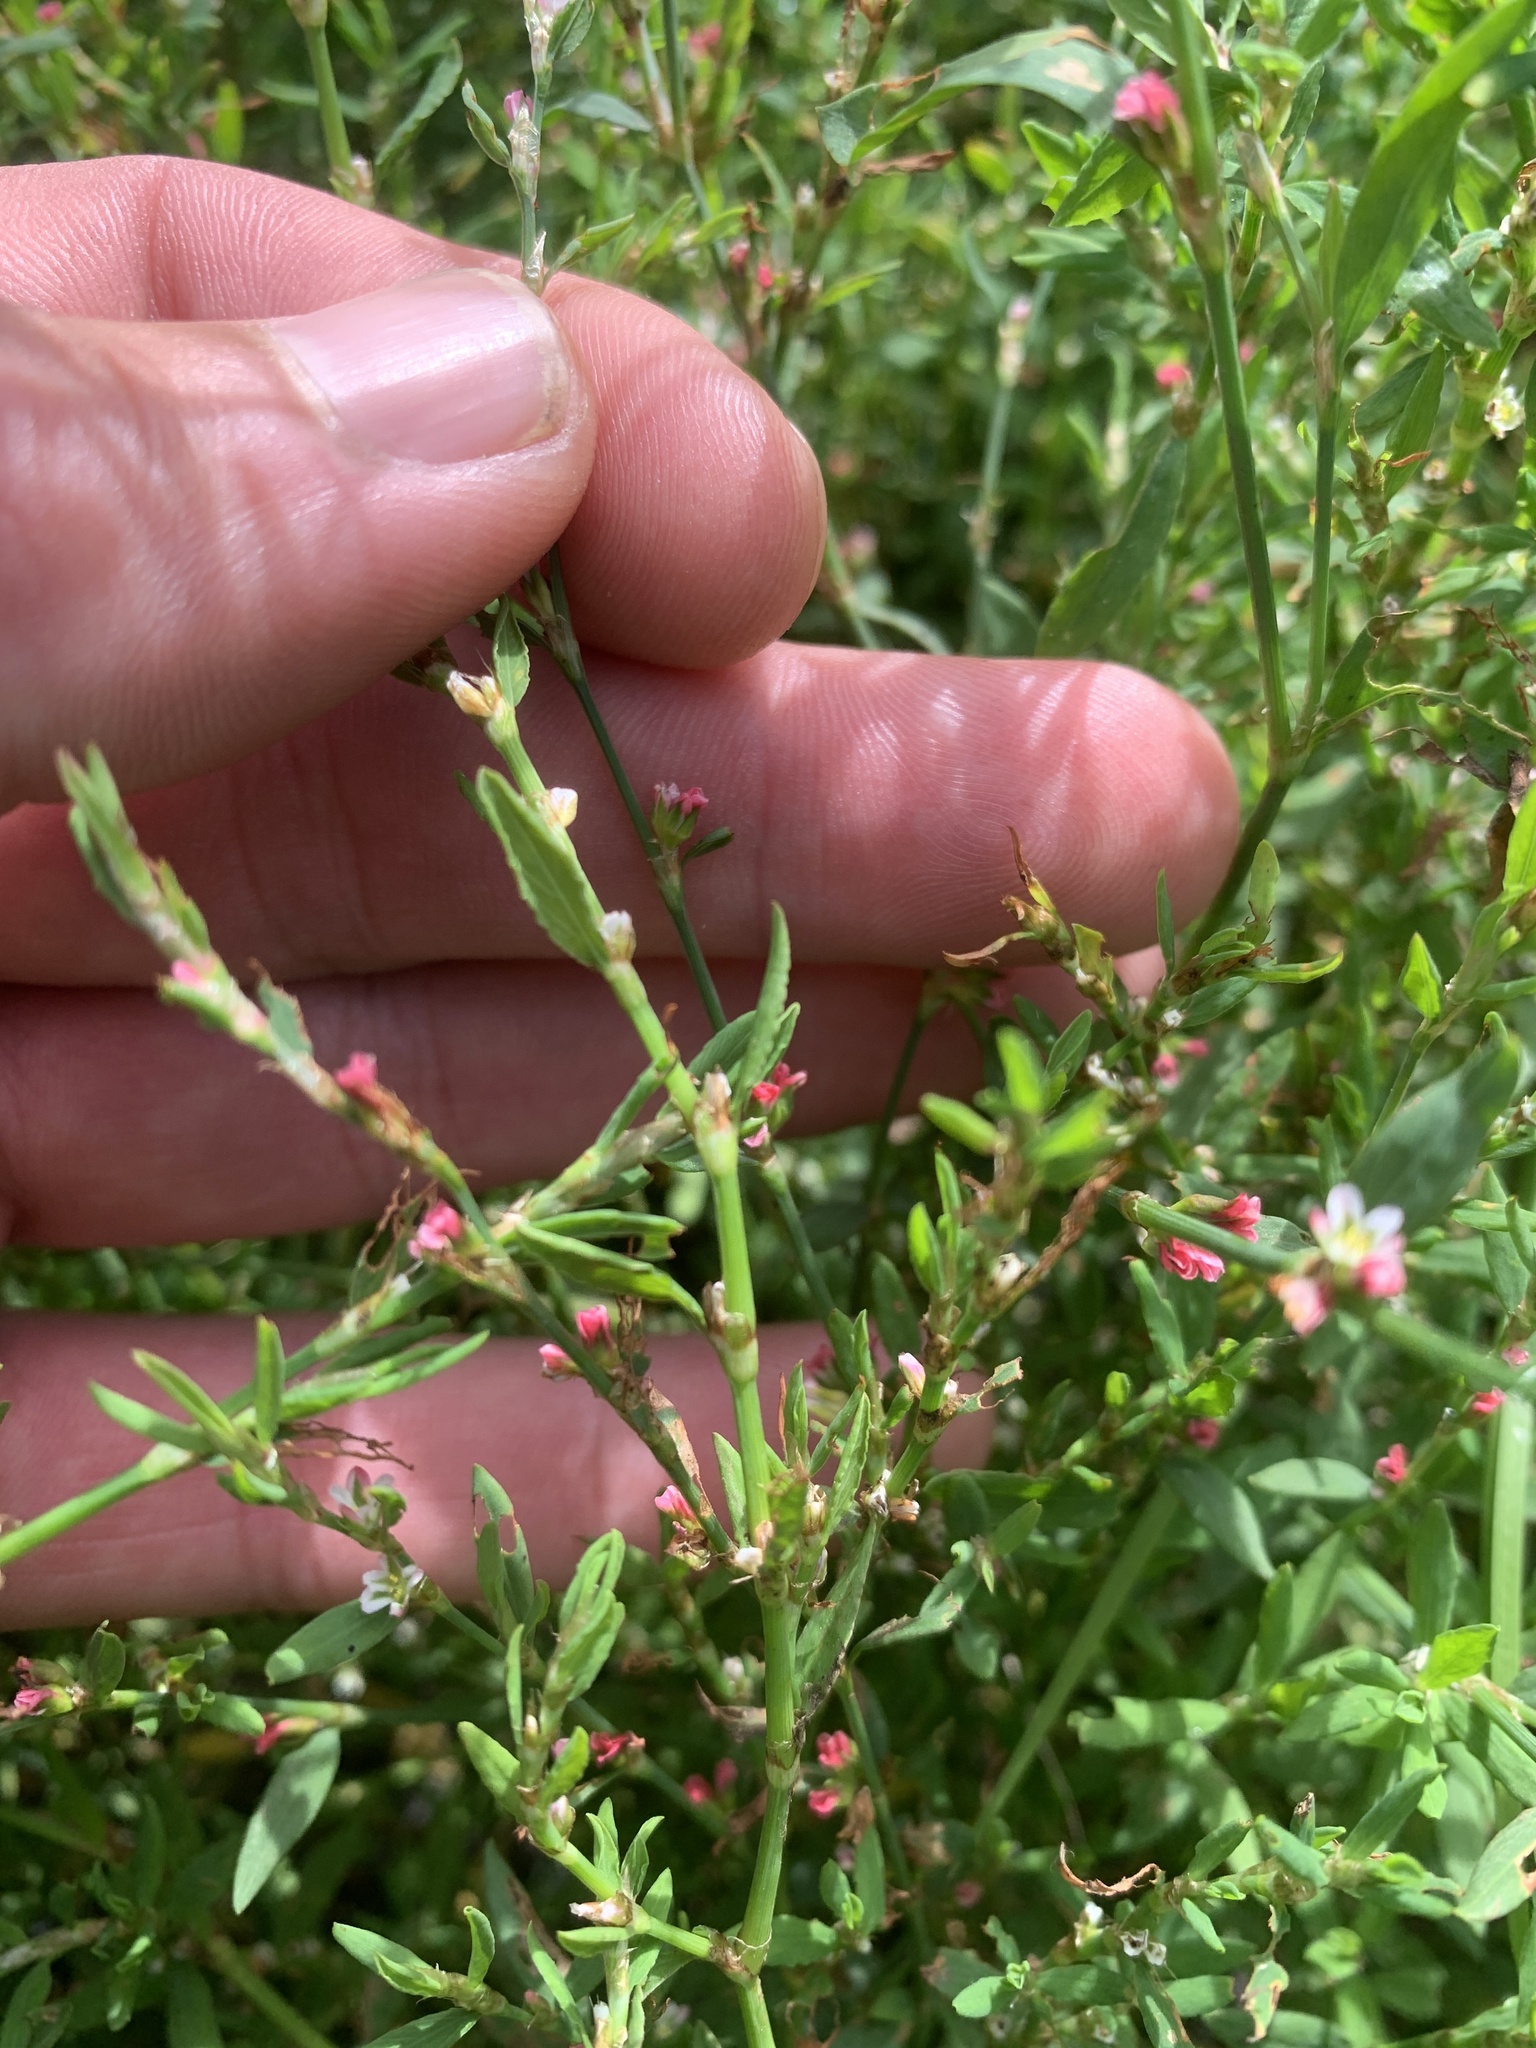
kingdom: Plantae
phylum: Tracheophyta
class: Magnoliopsida
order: Caryophyllales
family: Polygonaceae
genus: Polygonum
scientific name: Polygonum aviculare
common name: Prostrate knotweed
